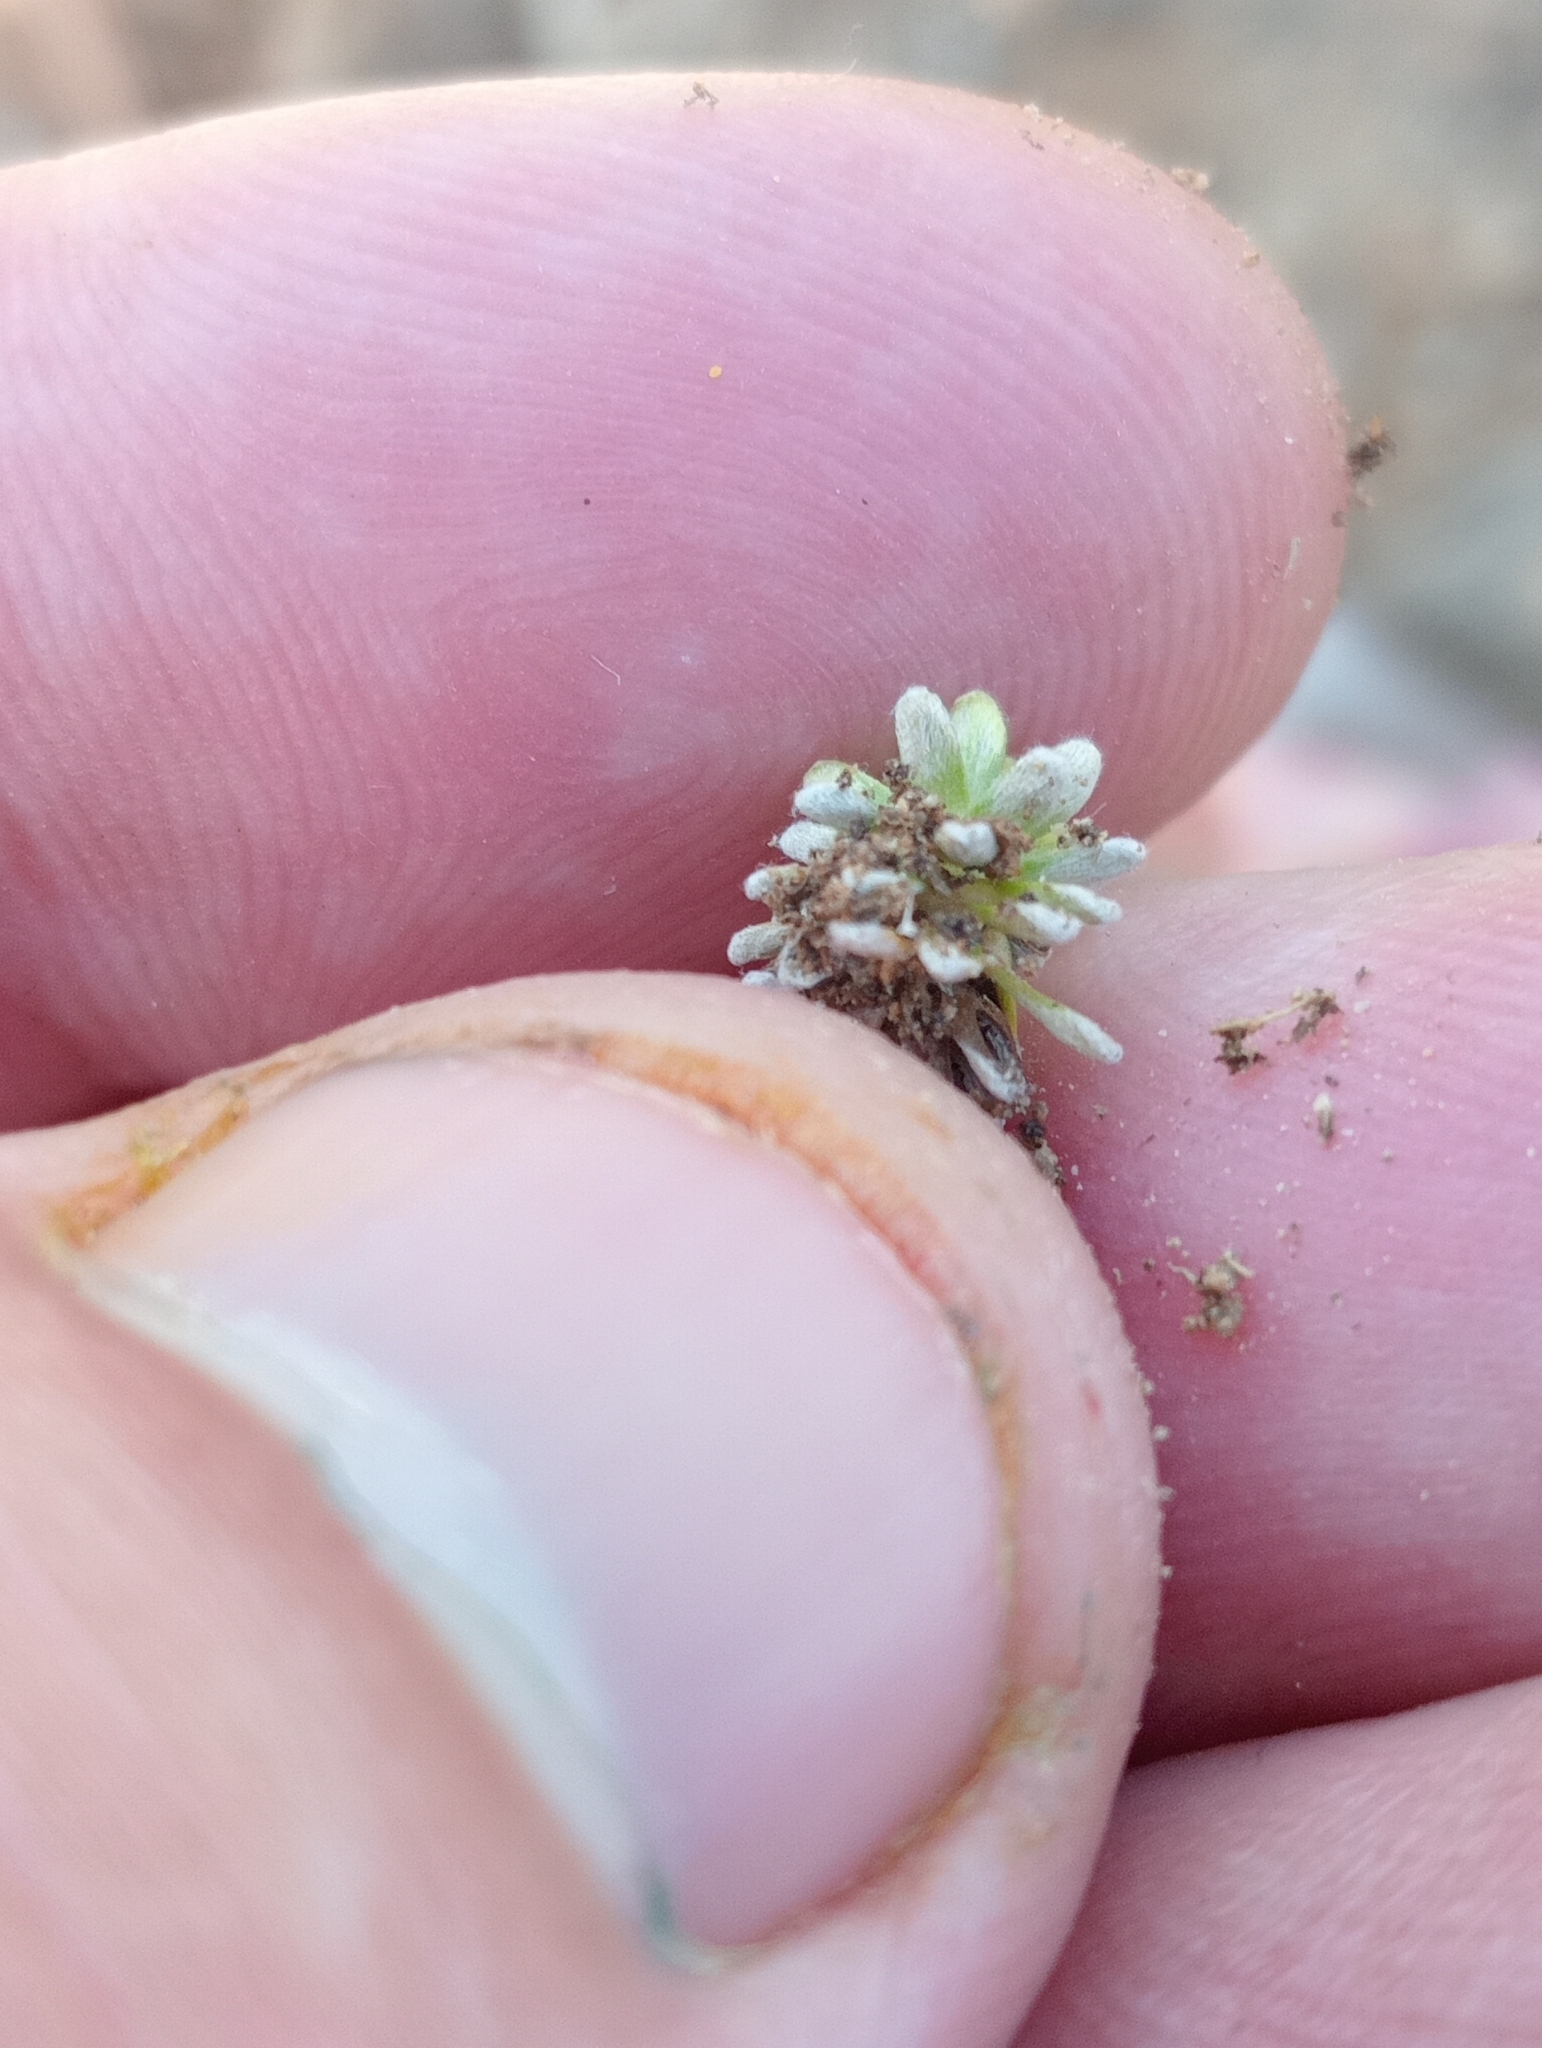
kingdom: Plantae
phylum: Tracheophyta
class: Magnoliopsida
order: Asterales
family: Asteraceae
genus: Raoulia
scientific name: Raoulia subsericea
